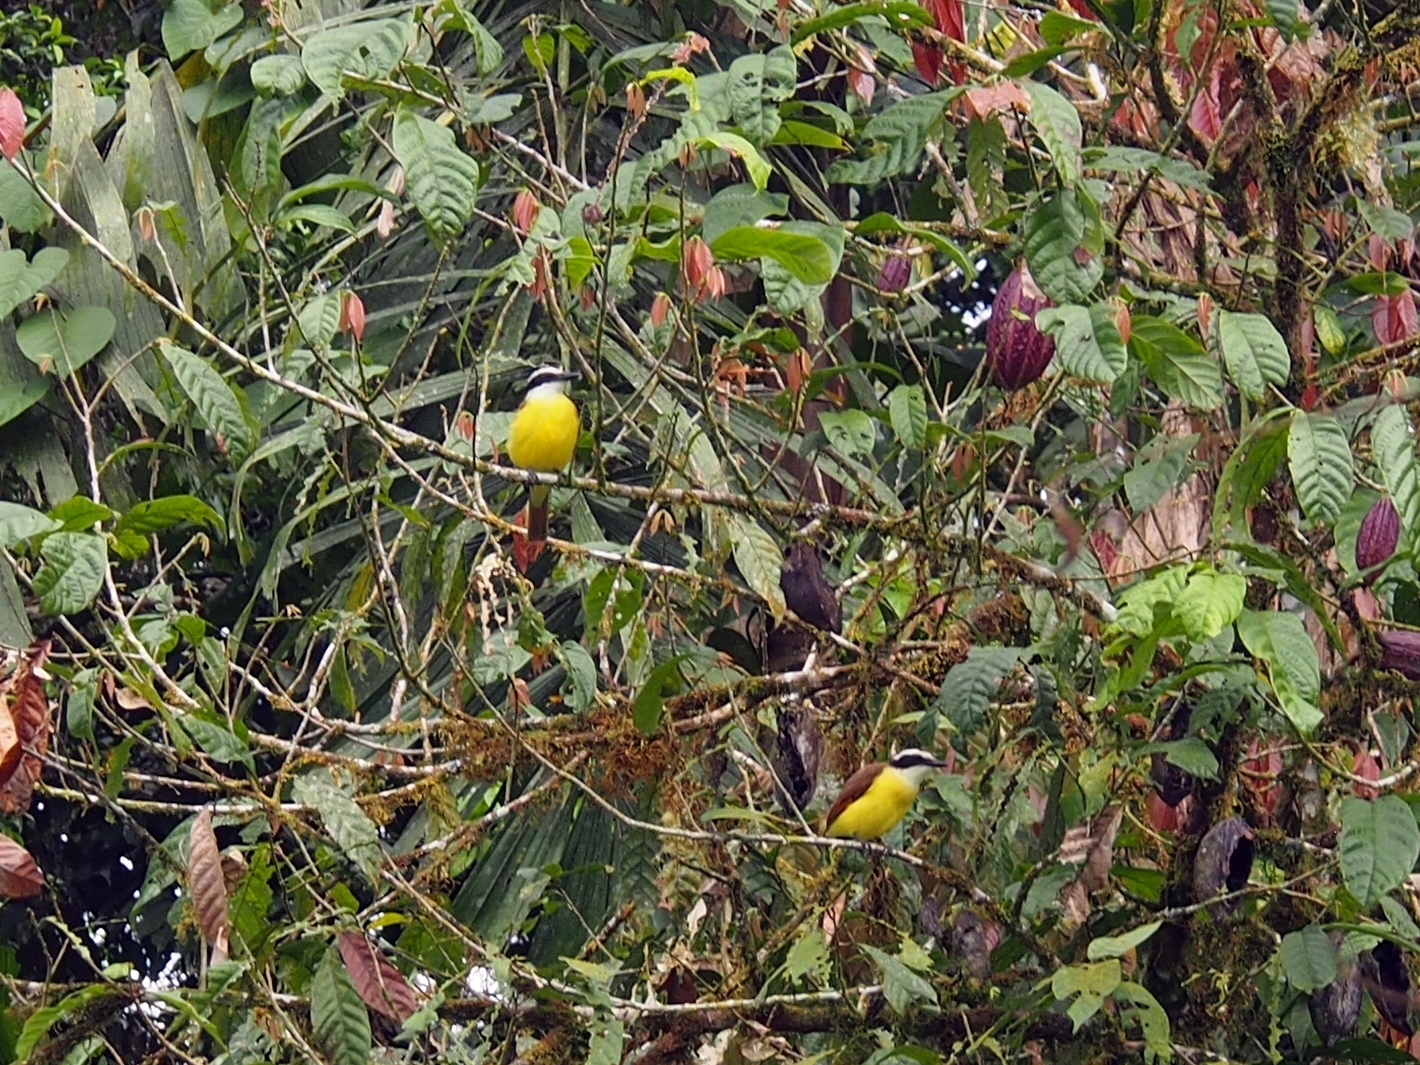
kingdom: Animalia
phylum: Chordata
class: Aves
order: Passeriformes
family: Tyrannidae
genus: Myiozetetes
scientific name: Myiozetetes similis
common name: Social flycatcher
